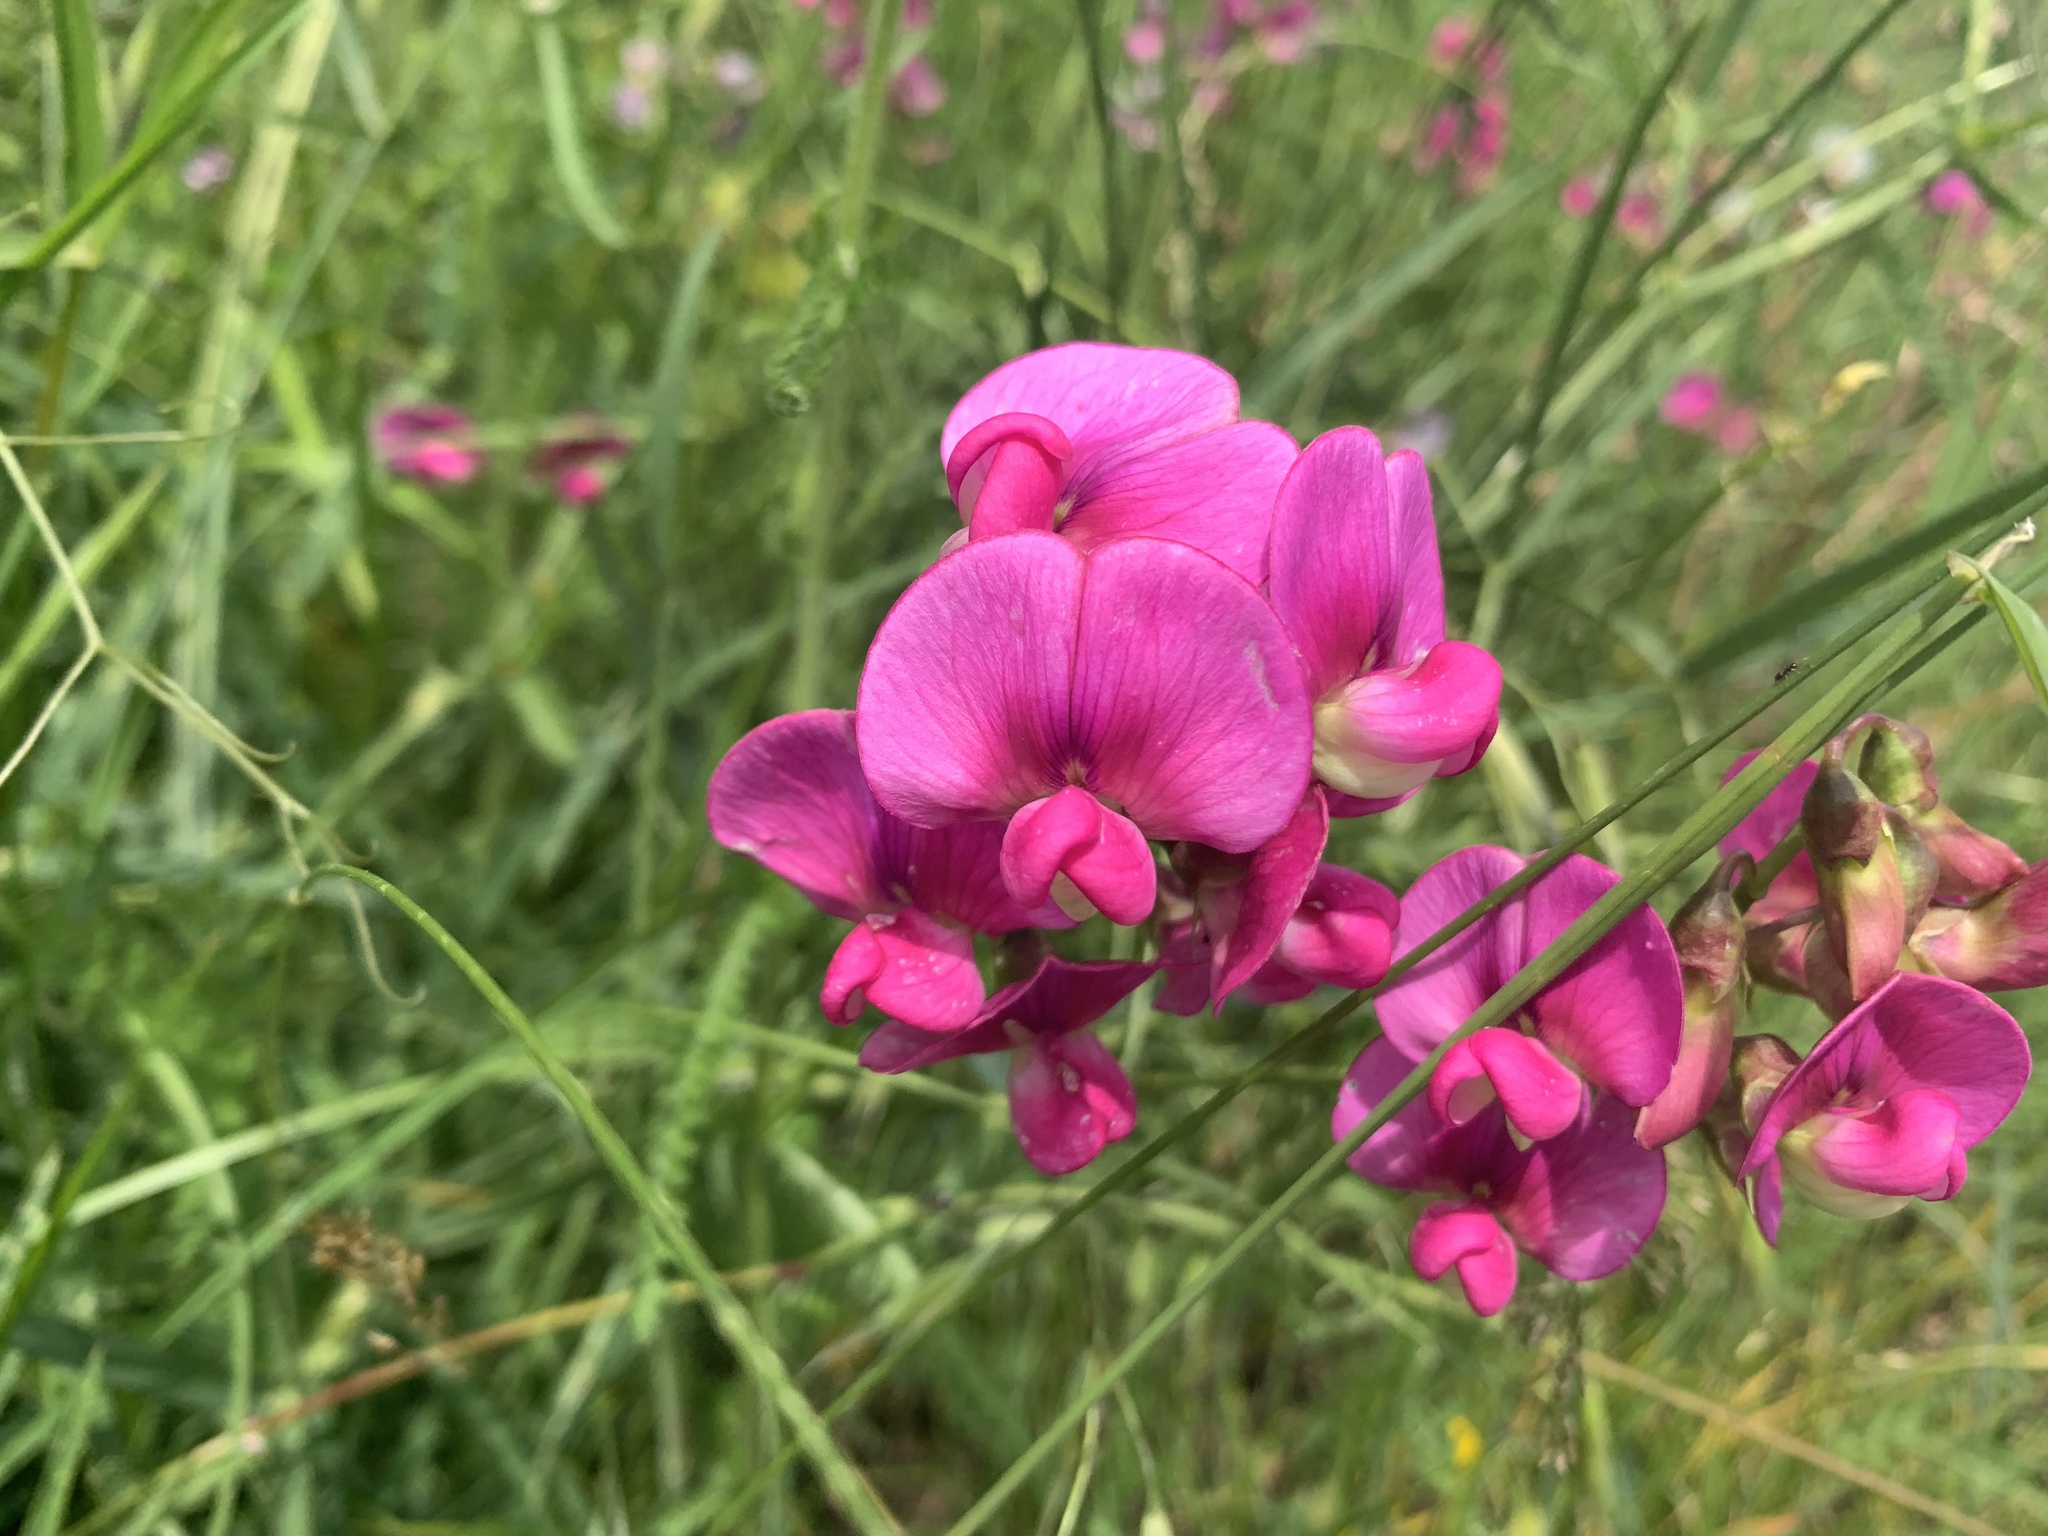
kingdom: Plantae
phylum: Tracheophyta
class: Magnoliopsida
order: Fabales
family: Fabaceae
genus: Lathyrus
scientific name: Lathyrus latifolius
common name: Perennial pea
